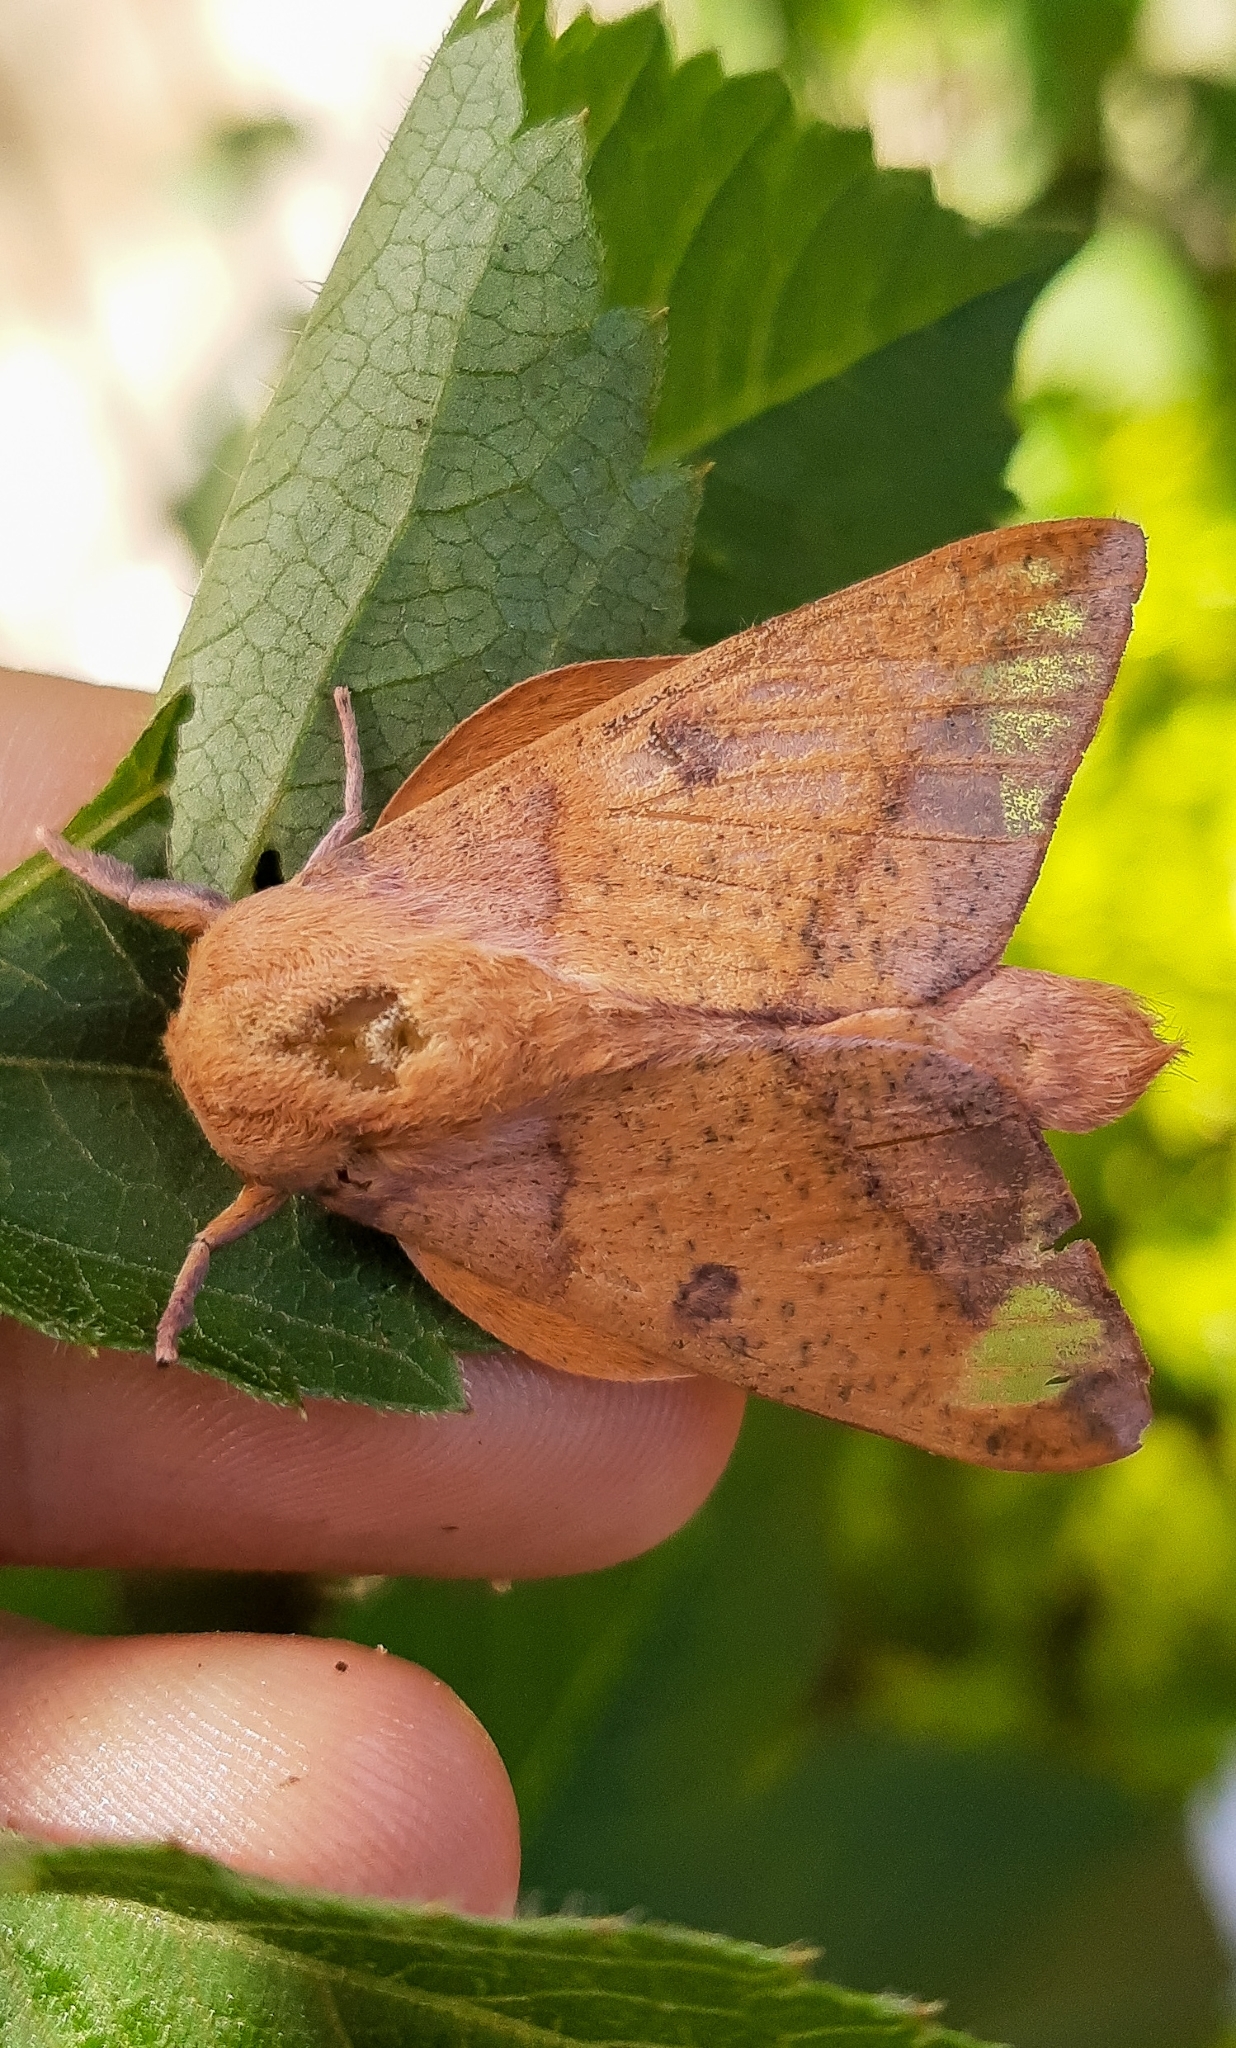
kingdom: Animalia
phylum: Arthropoda
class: Insecta
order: Lepidoptera
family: Saturniidae
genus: Adeloneivaia
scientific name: Adeloneivaia catharina
